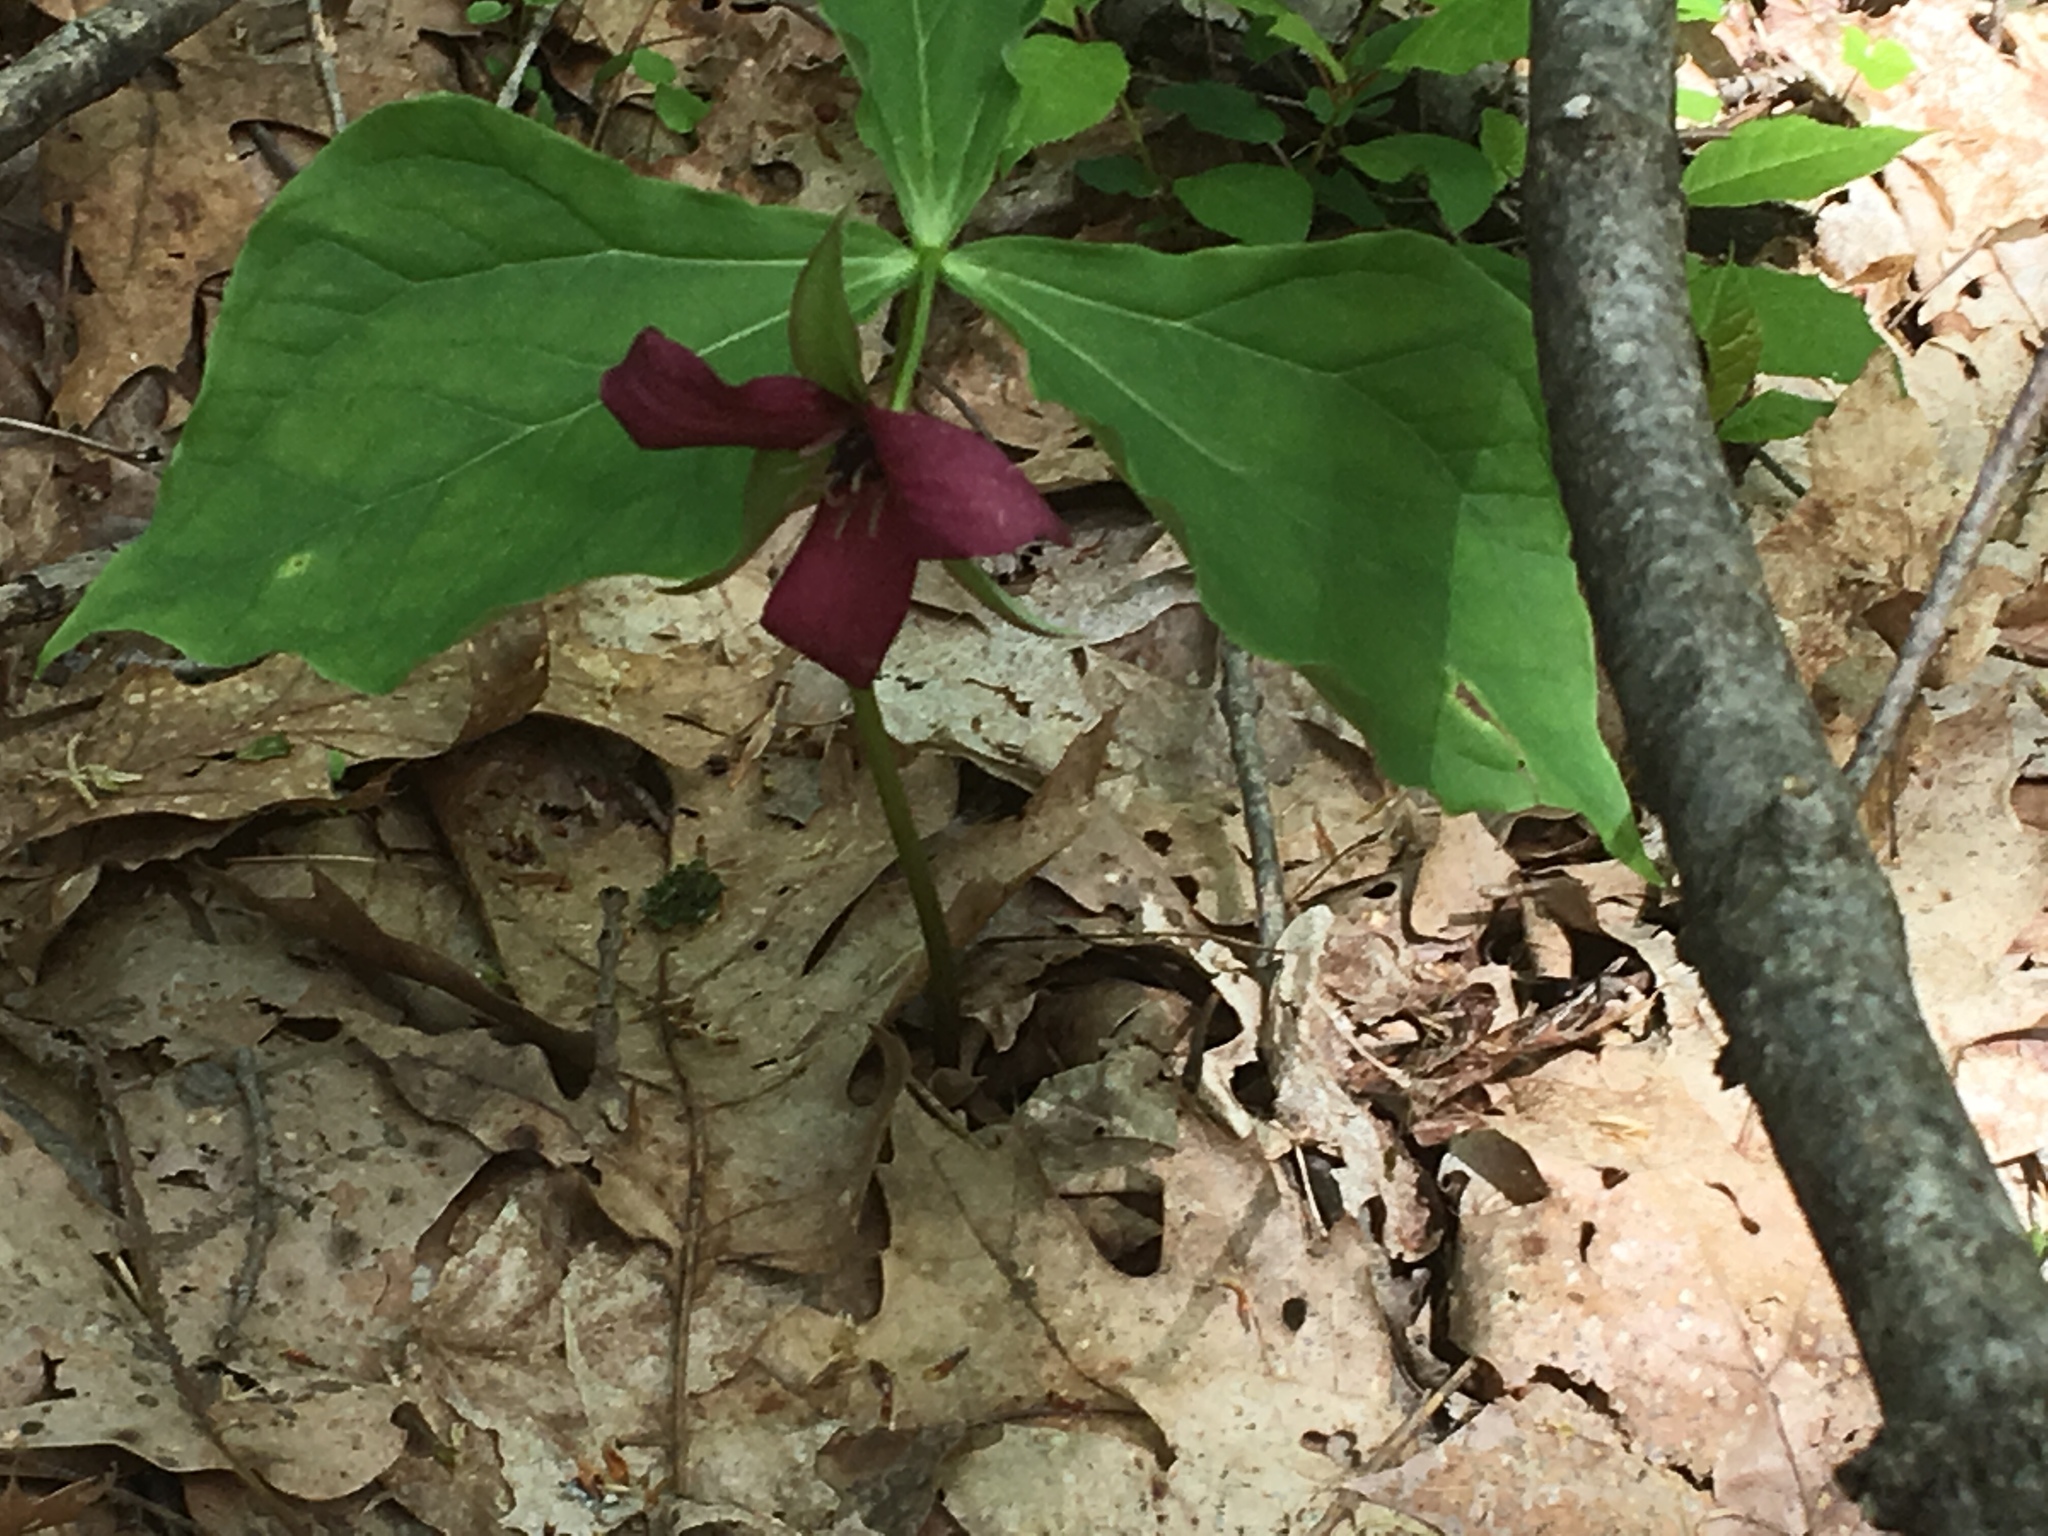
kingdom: Plantae
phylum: Tracheophyta
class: Liliopsida
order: Liliales
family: Melanthiaceae
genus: Trillium
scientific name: Trillium erectum
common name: Purple trillium
